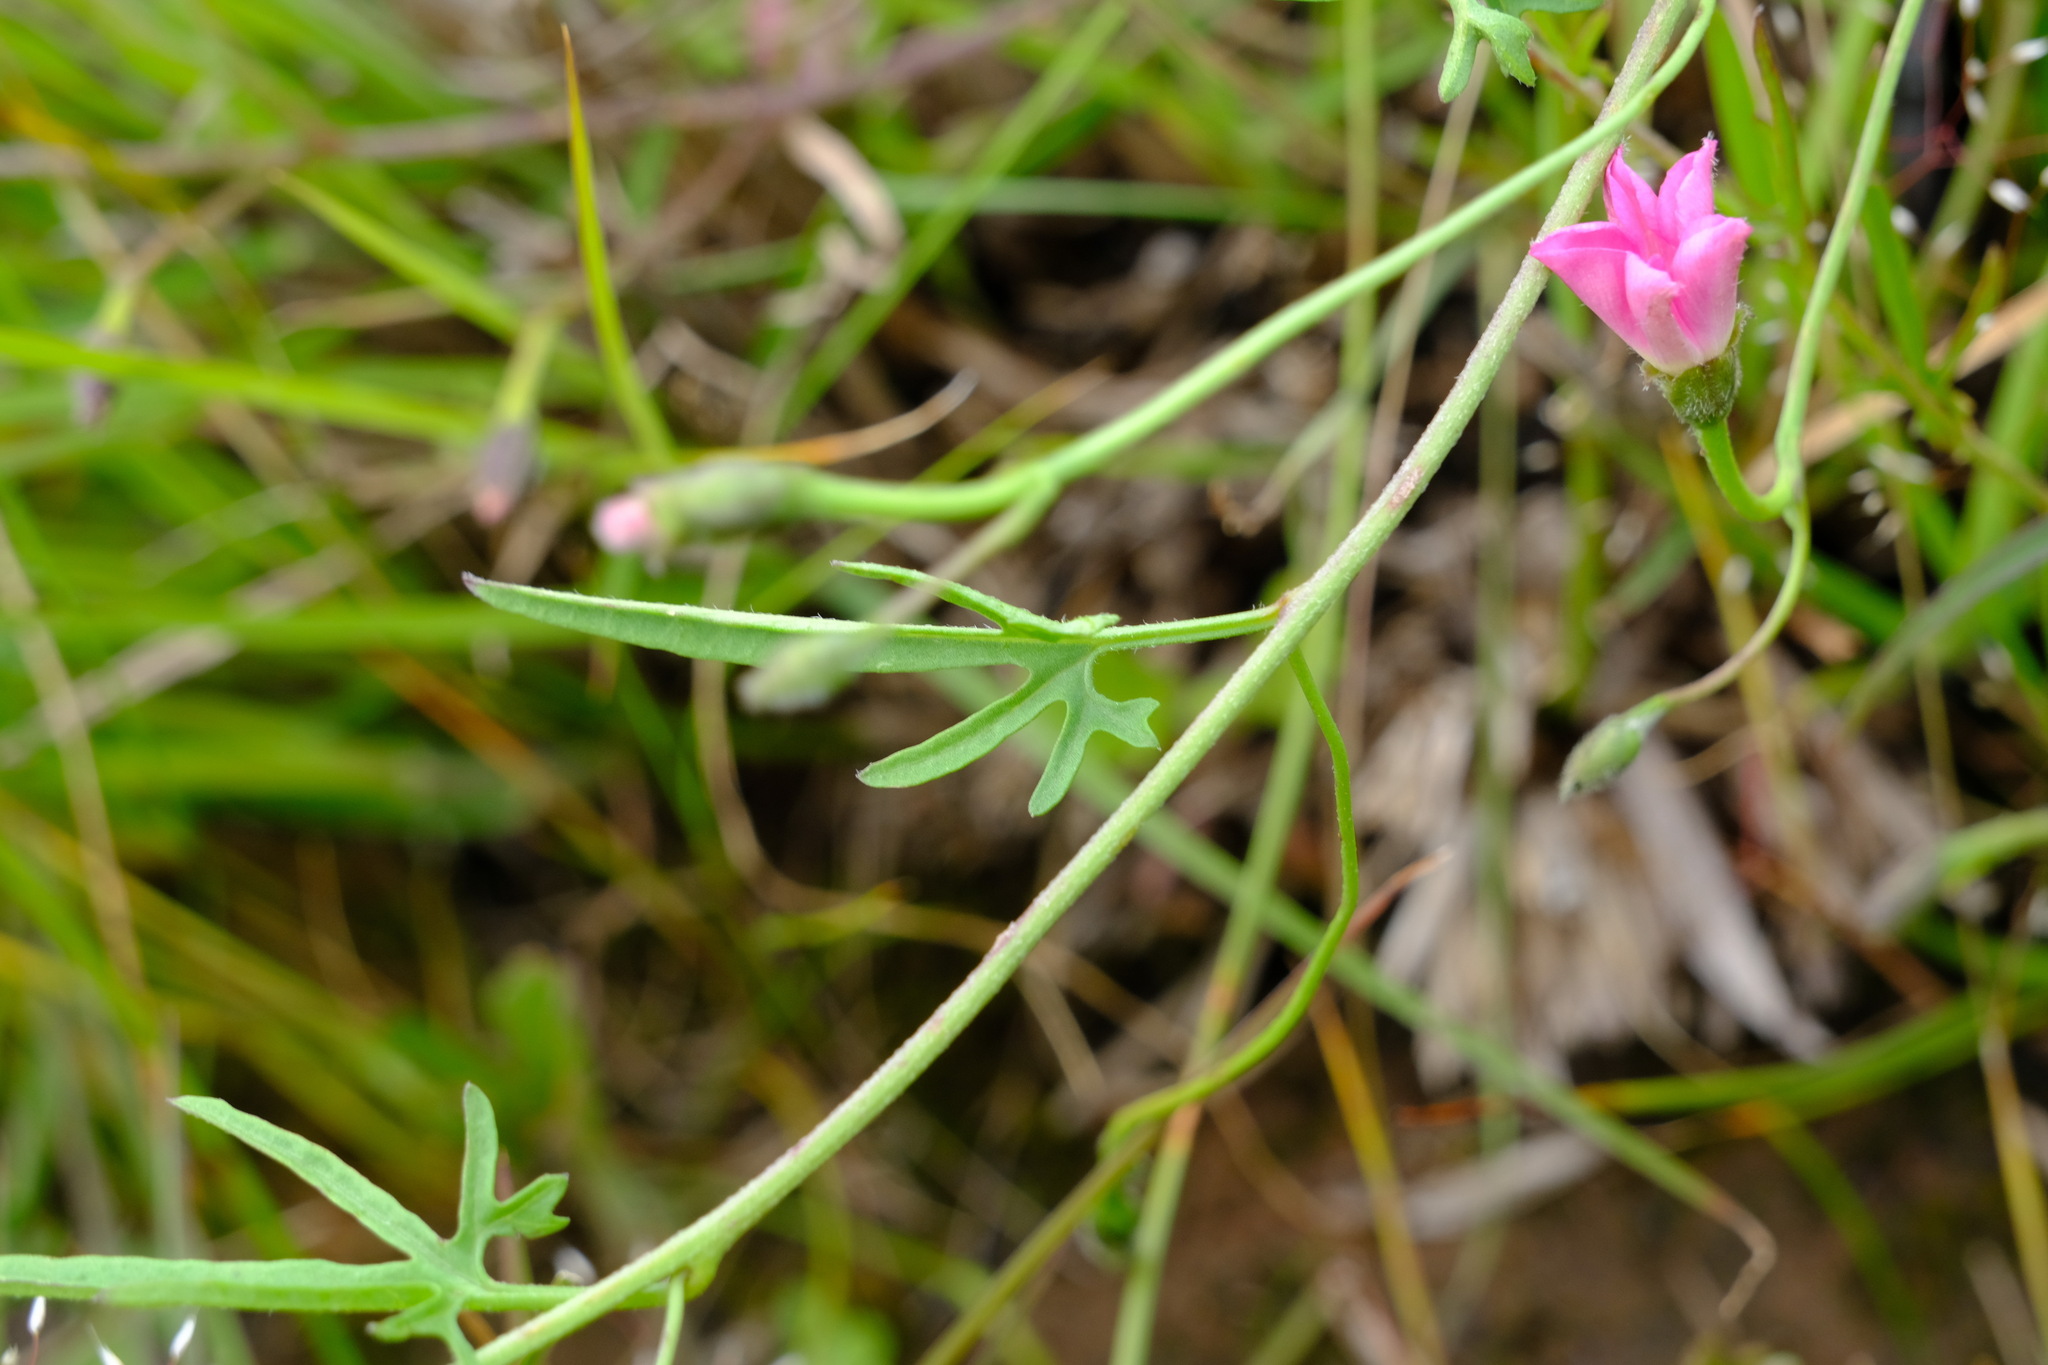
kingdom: Plantae
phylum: Tracheophyta
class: Magnoliopsida
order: Solanales
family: Convolvulaceae
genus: Convolvulus
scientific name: Convolvulus angustissimus
